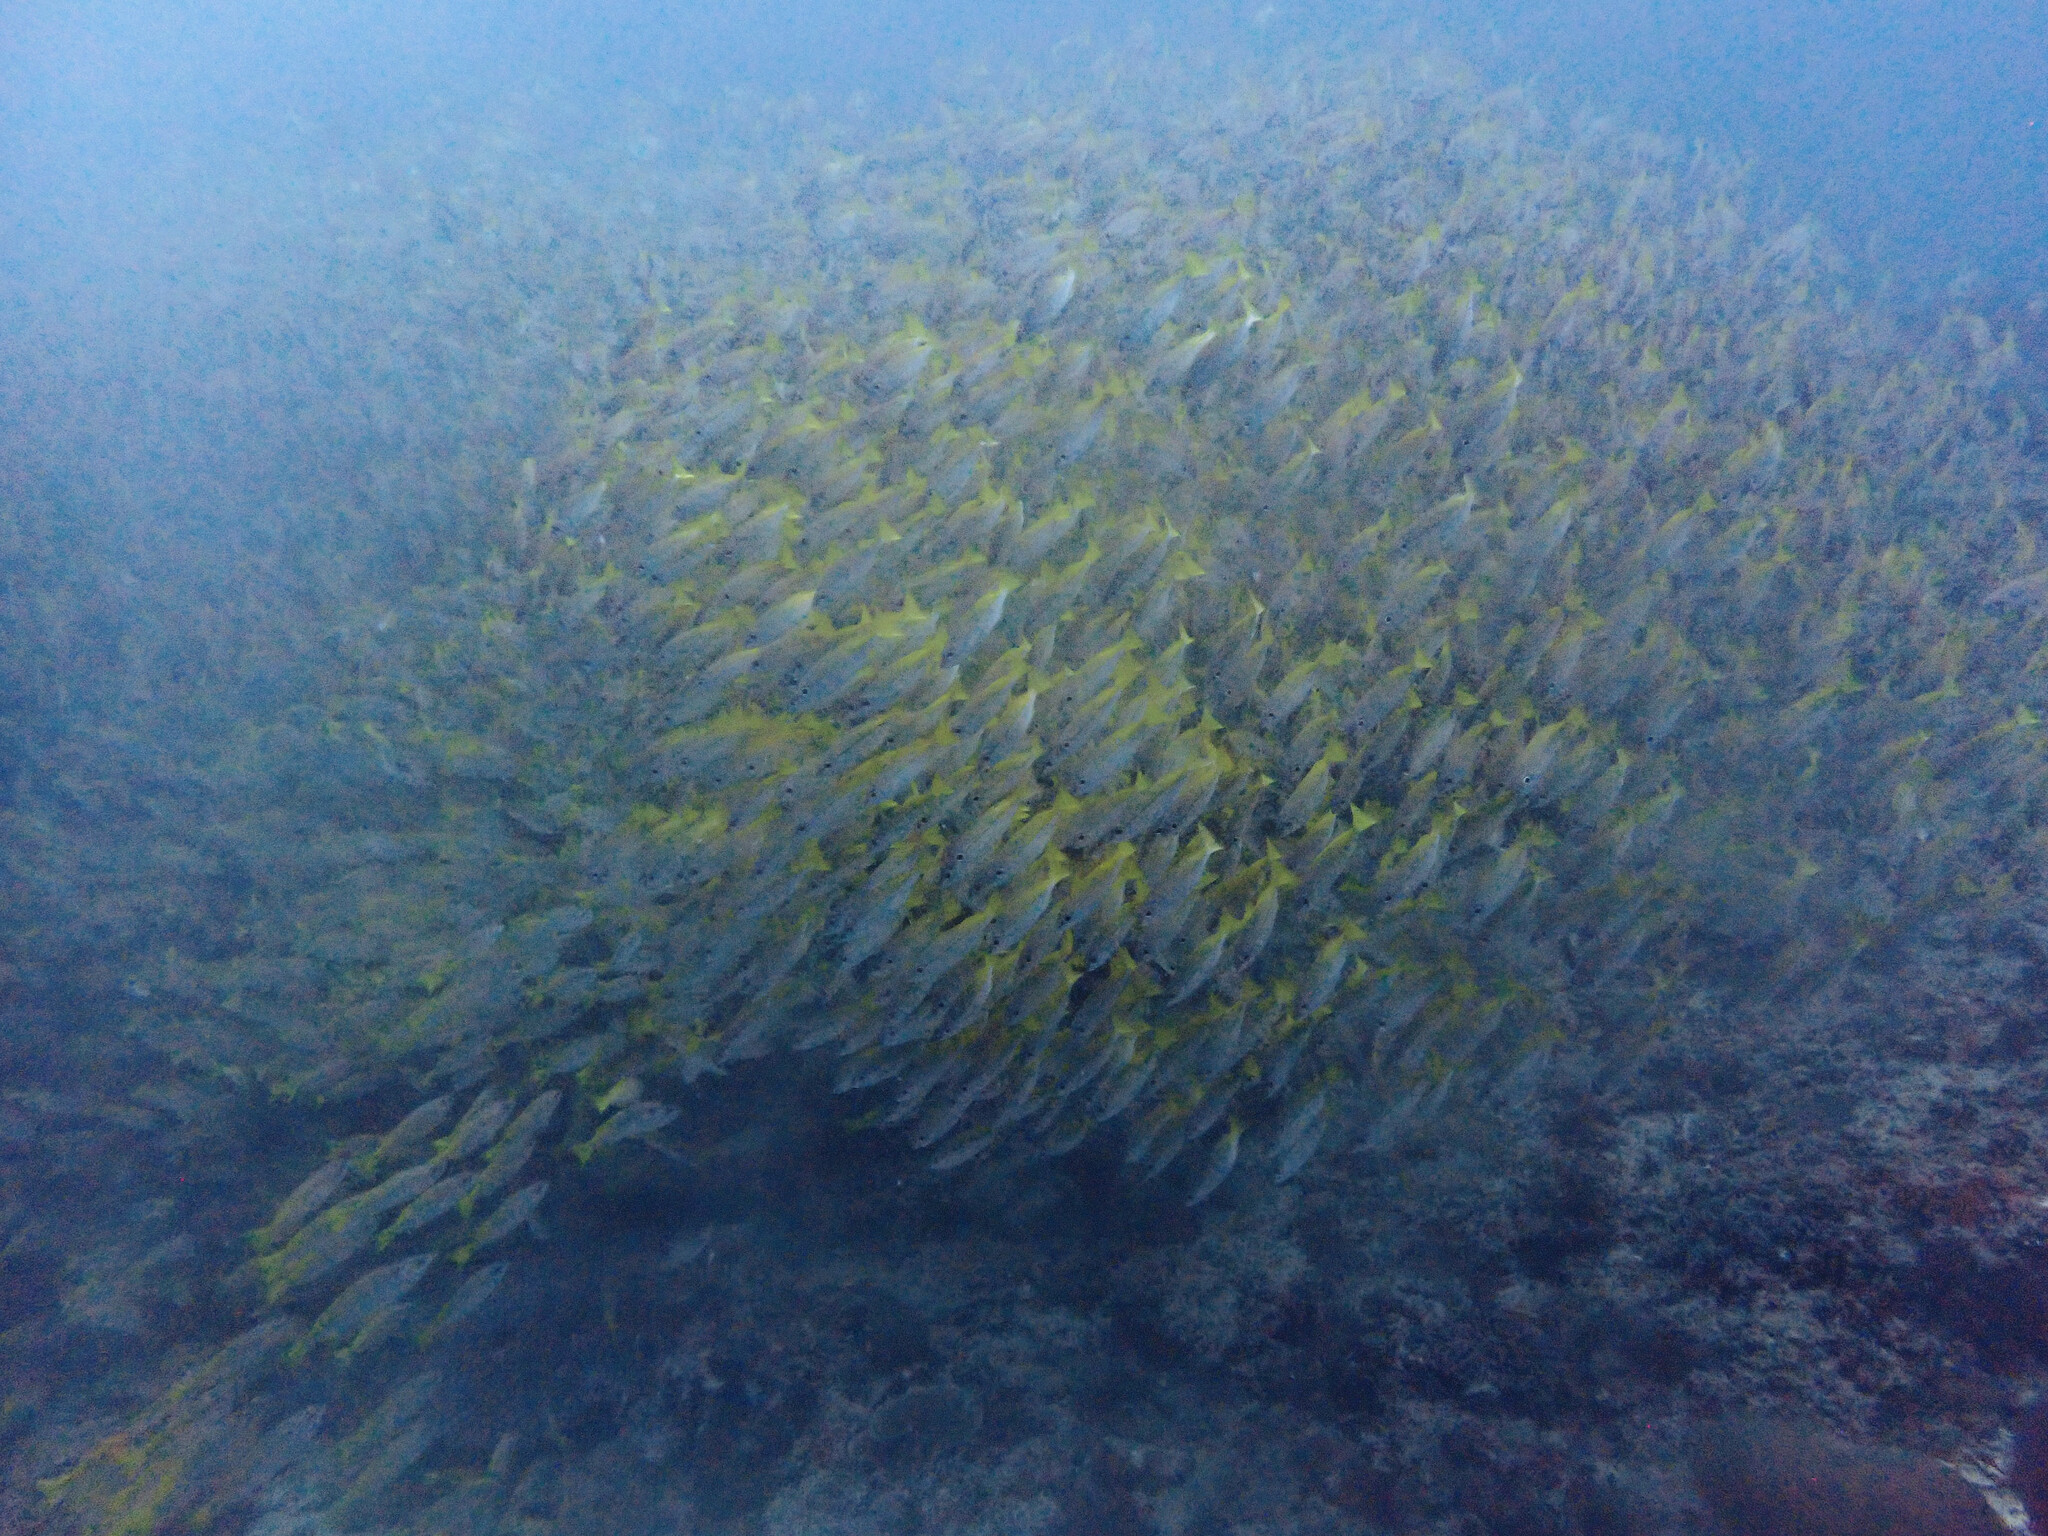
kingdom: Animalia
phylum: Chordata
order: Perciformes
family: Lutjanidae
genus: Lutjanus
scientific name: Lutjanus lutjanus
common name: Bigeye snapper
